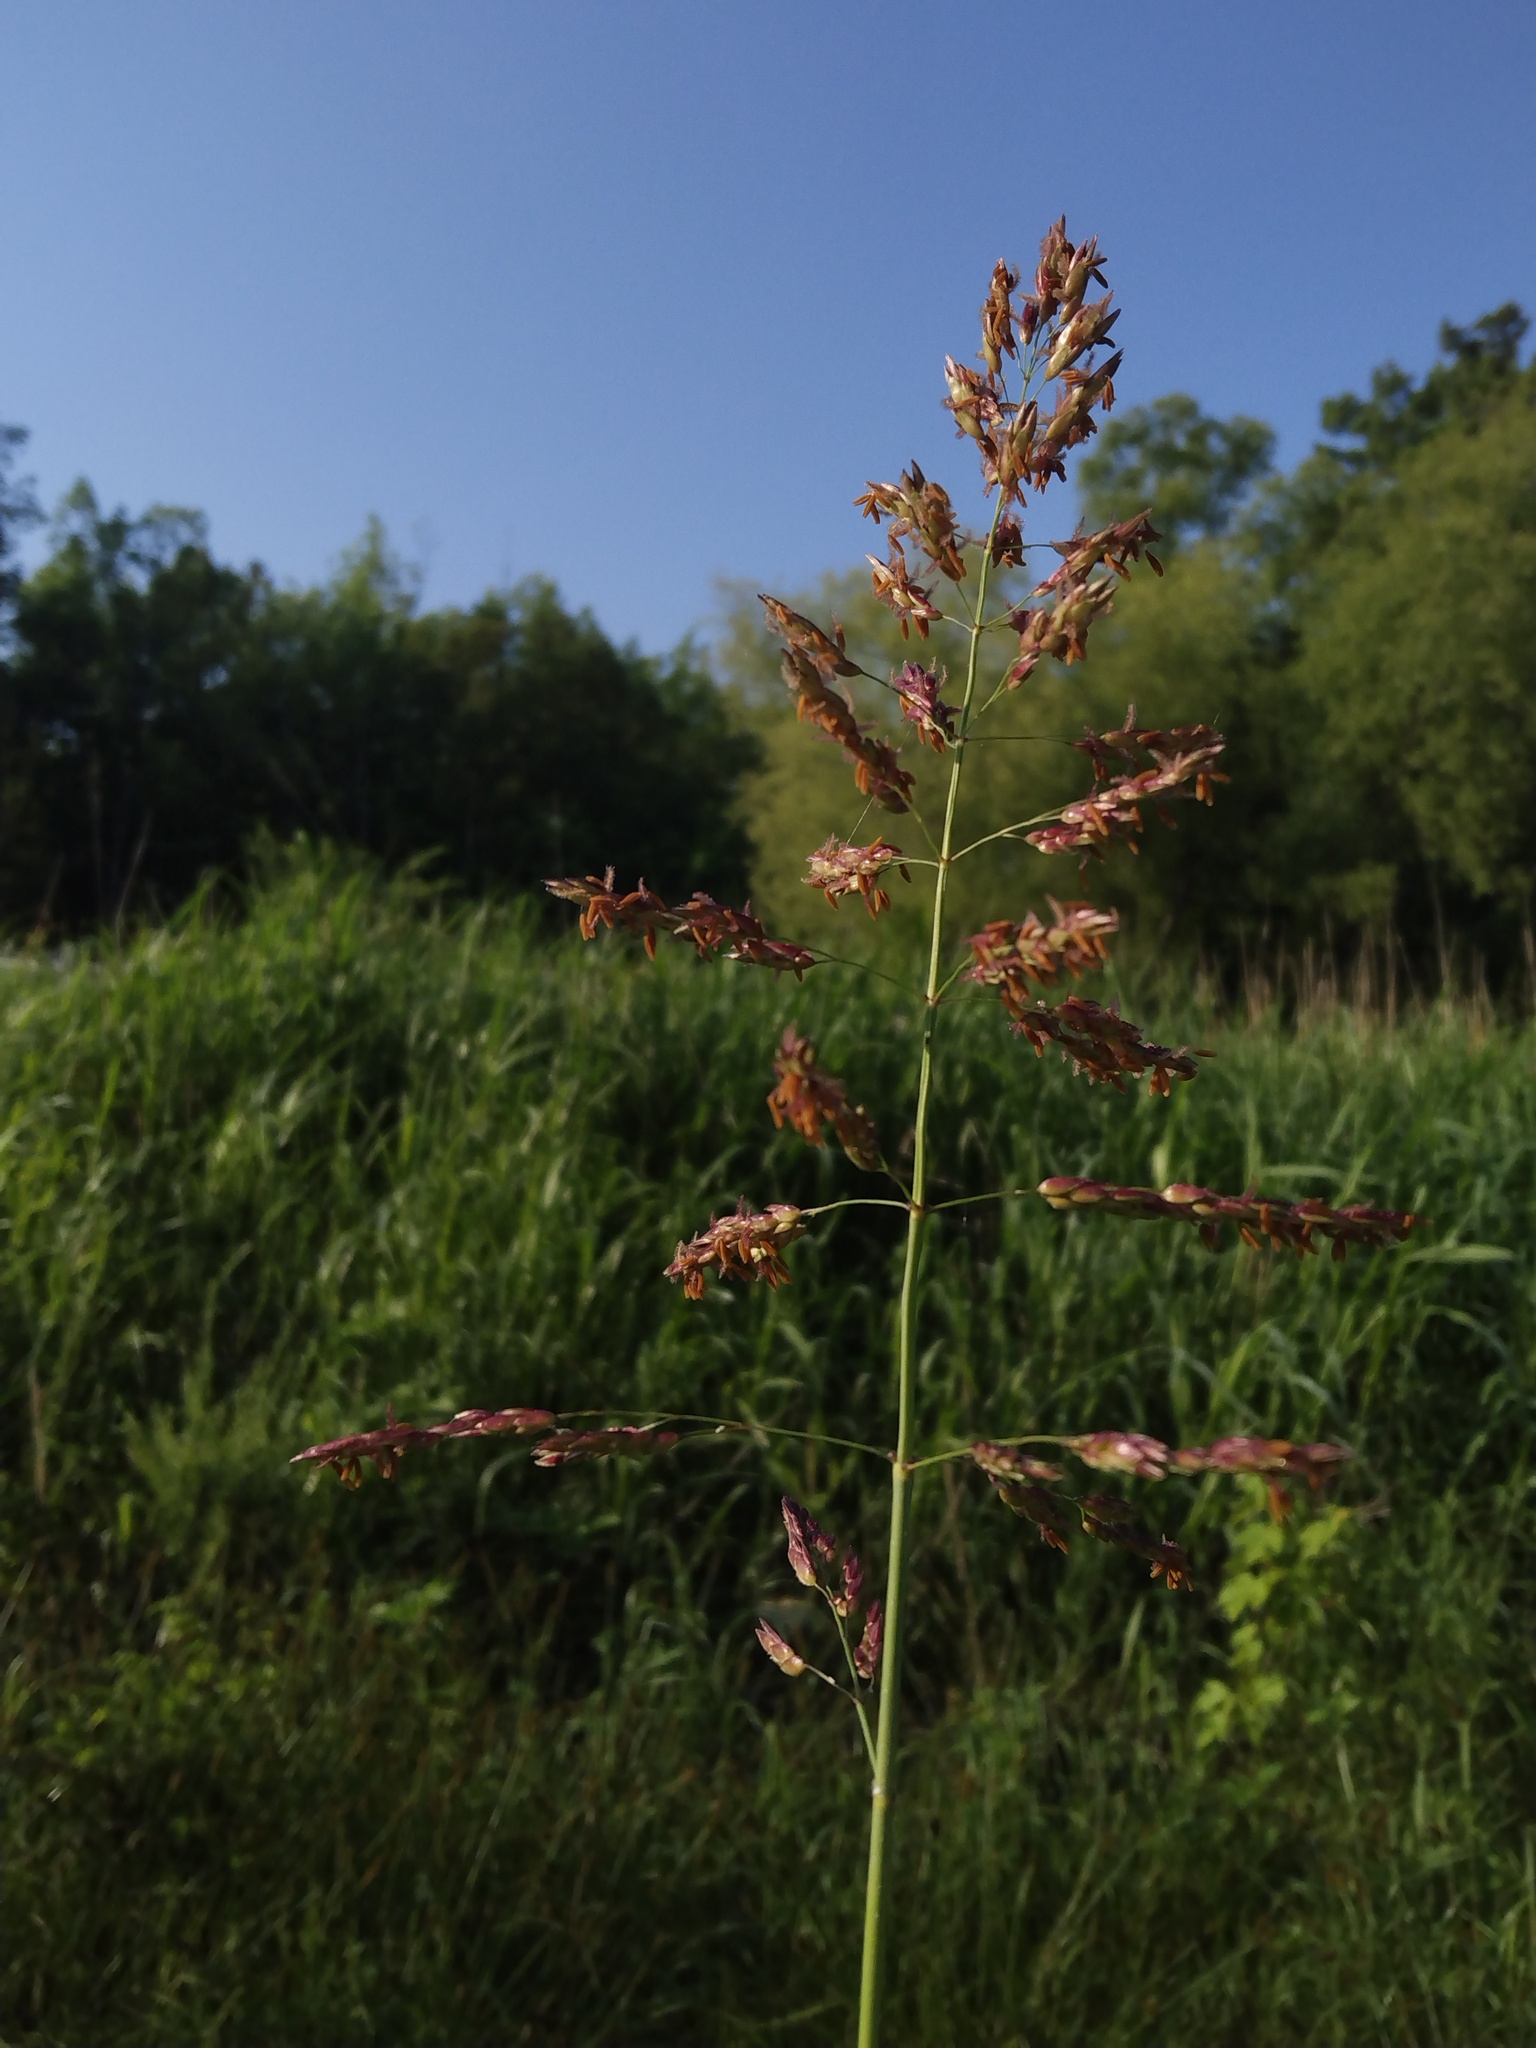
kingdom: Plantae
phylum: Tracheophyta
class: Liliopsida
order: Poales
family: Poaceae
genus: Sorghum
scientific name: Sorghum halepense
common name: Johnson-grass
